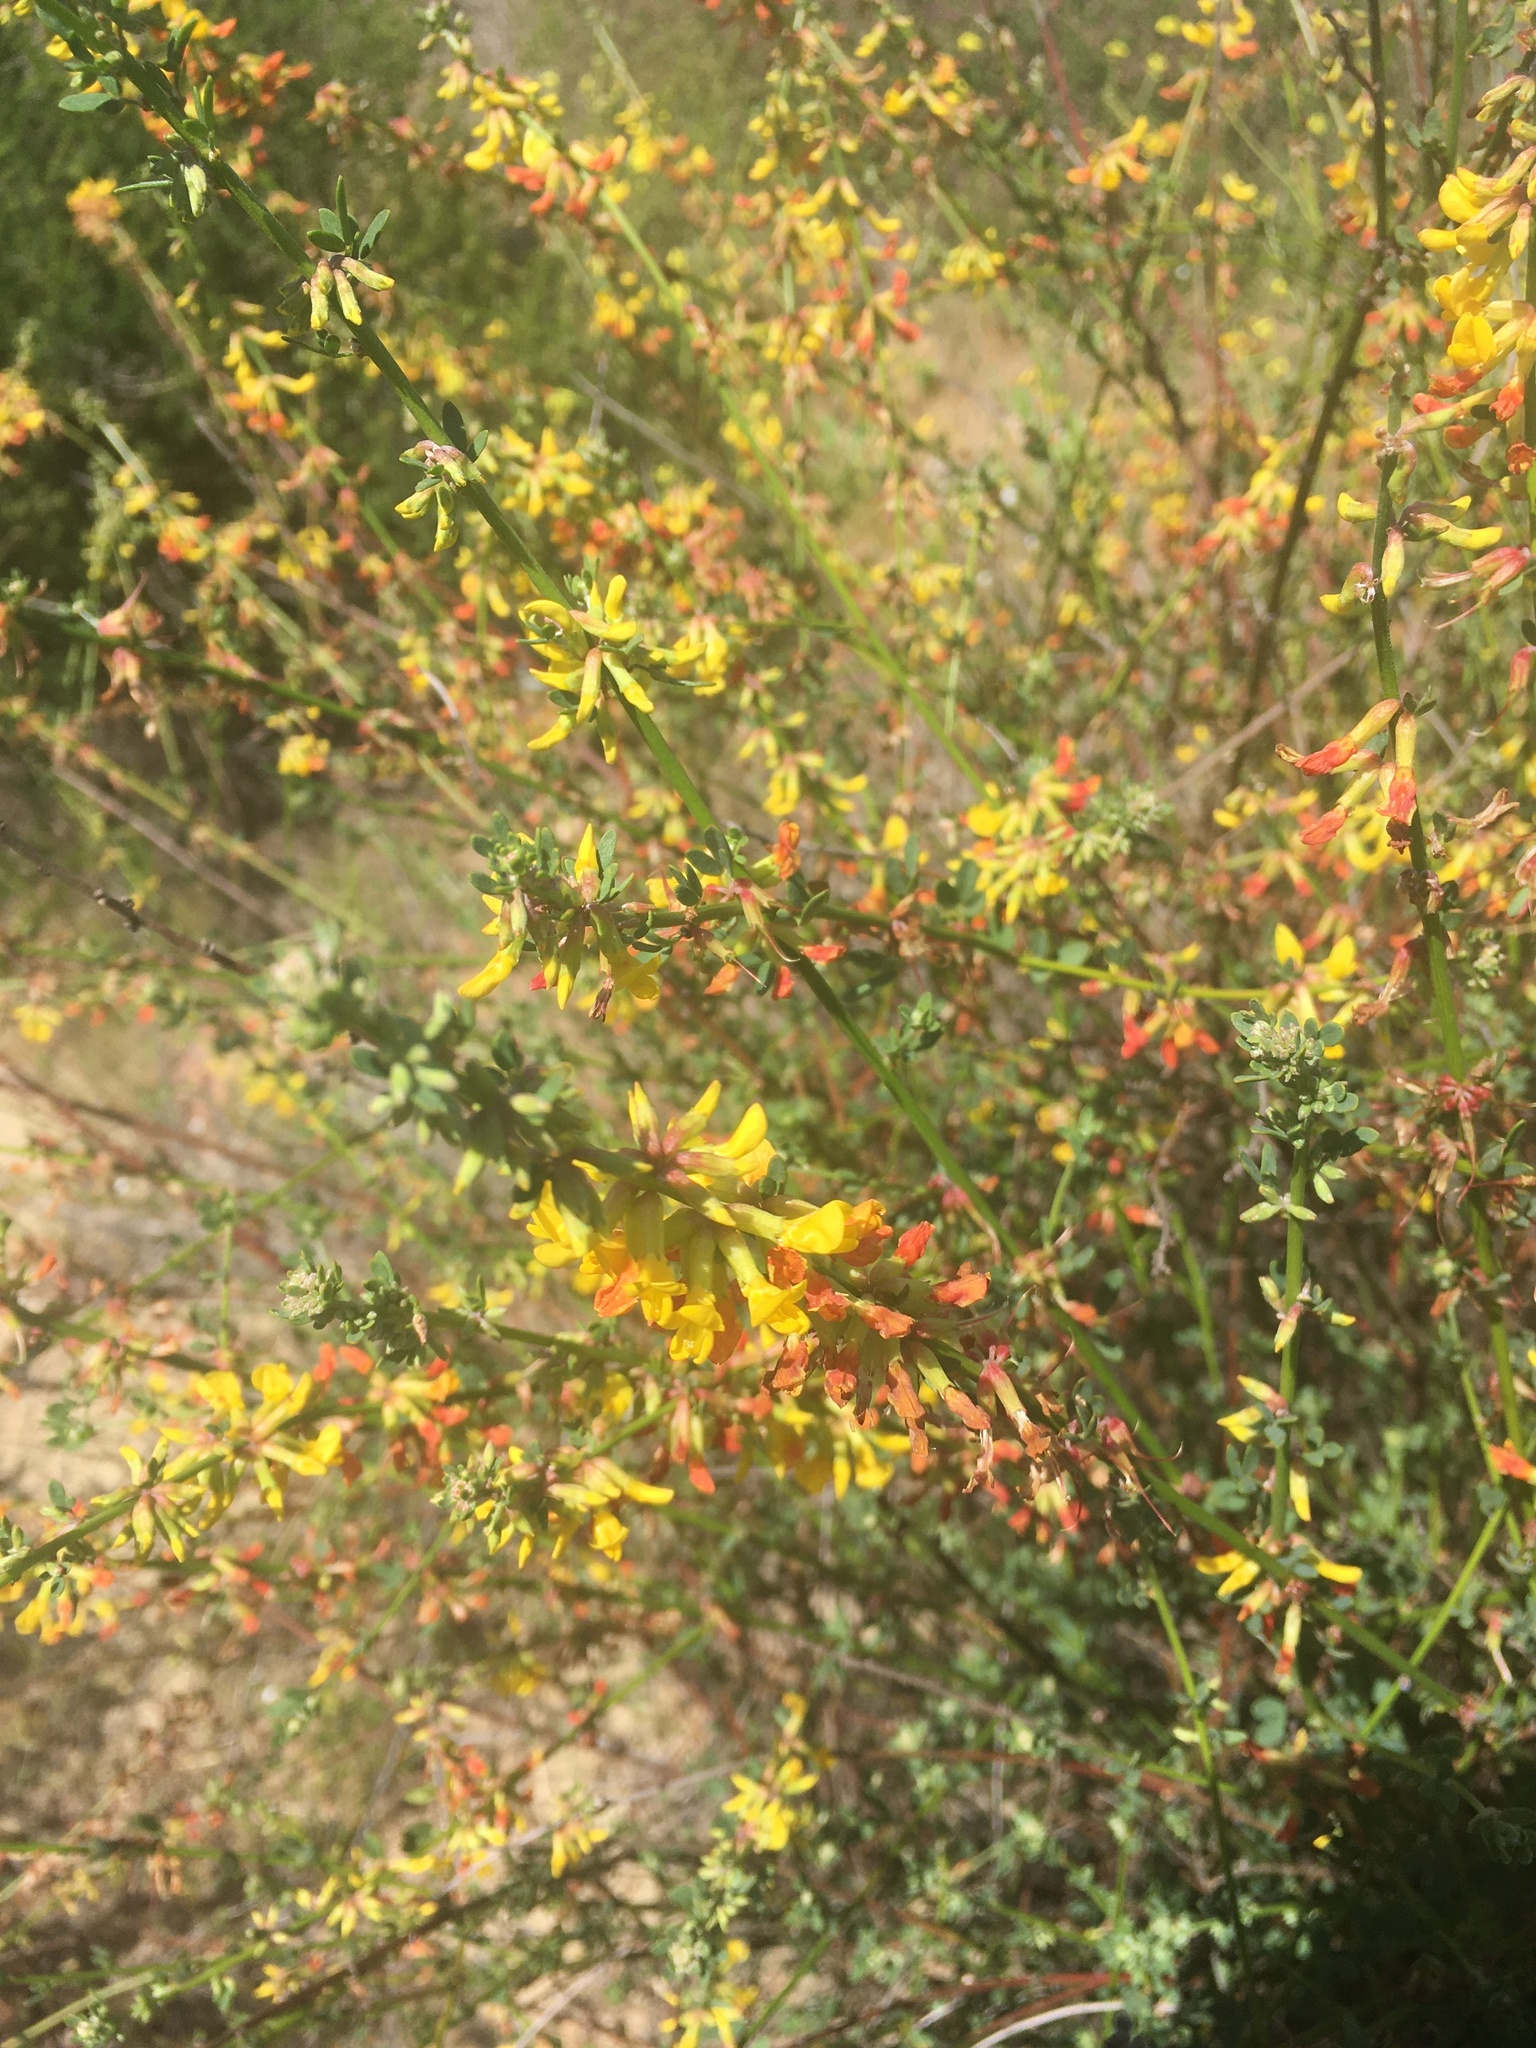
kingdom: Plantae
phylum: Tracheophyta
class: Magnoliopsida
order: Fabales
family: Fabaceae
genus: Acmispon
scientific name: Acmispon glaber
